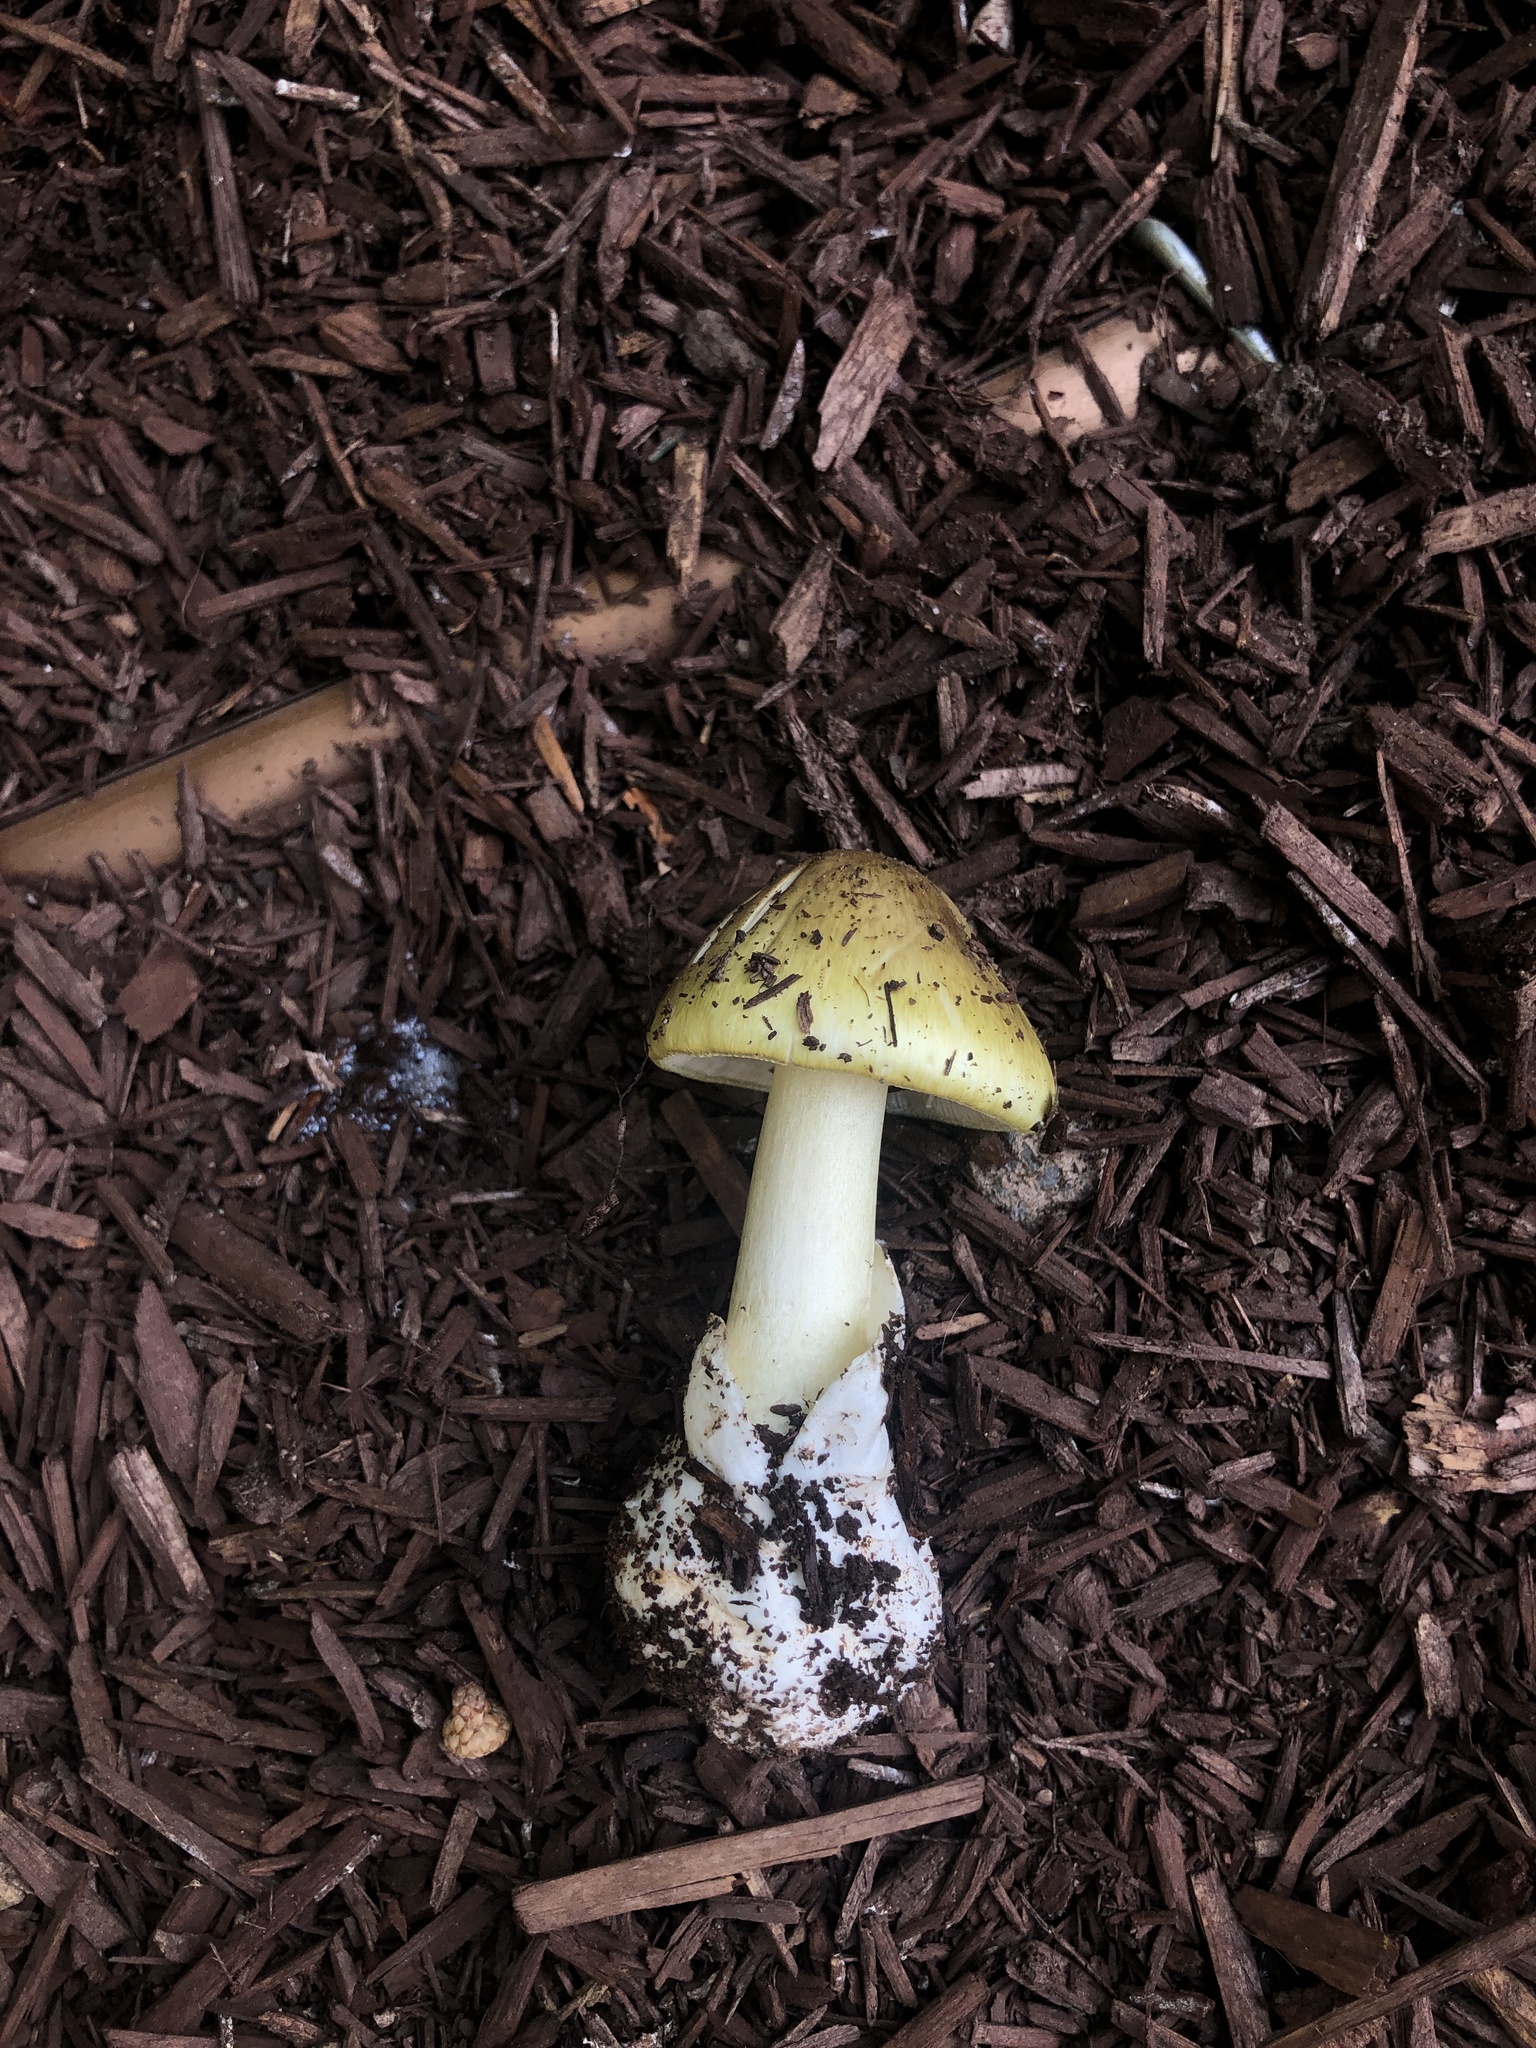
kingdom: Fungi
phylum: Basidiomycota
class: Agaricomycetes
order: Agaricales
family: Amanitaceae
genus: Amanita
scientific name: Amanita phalloides
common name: Death cap
